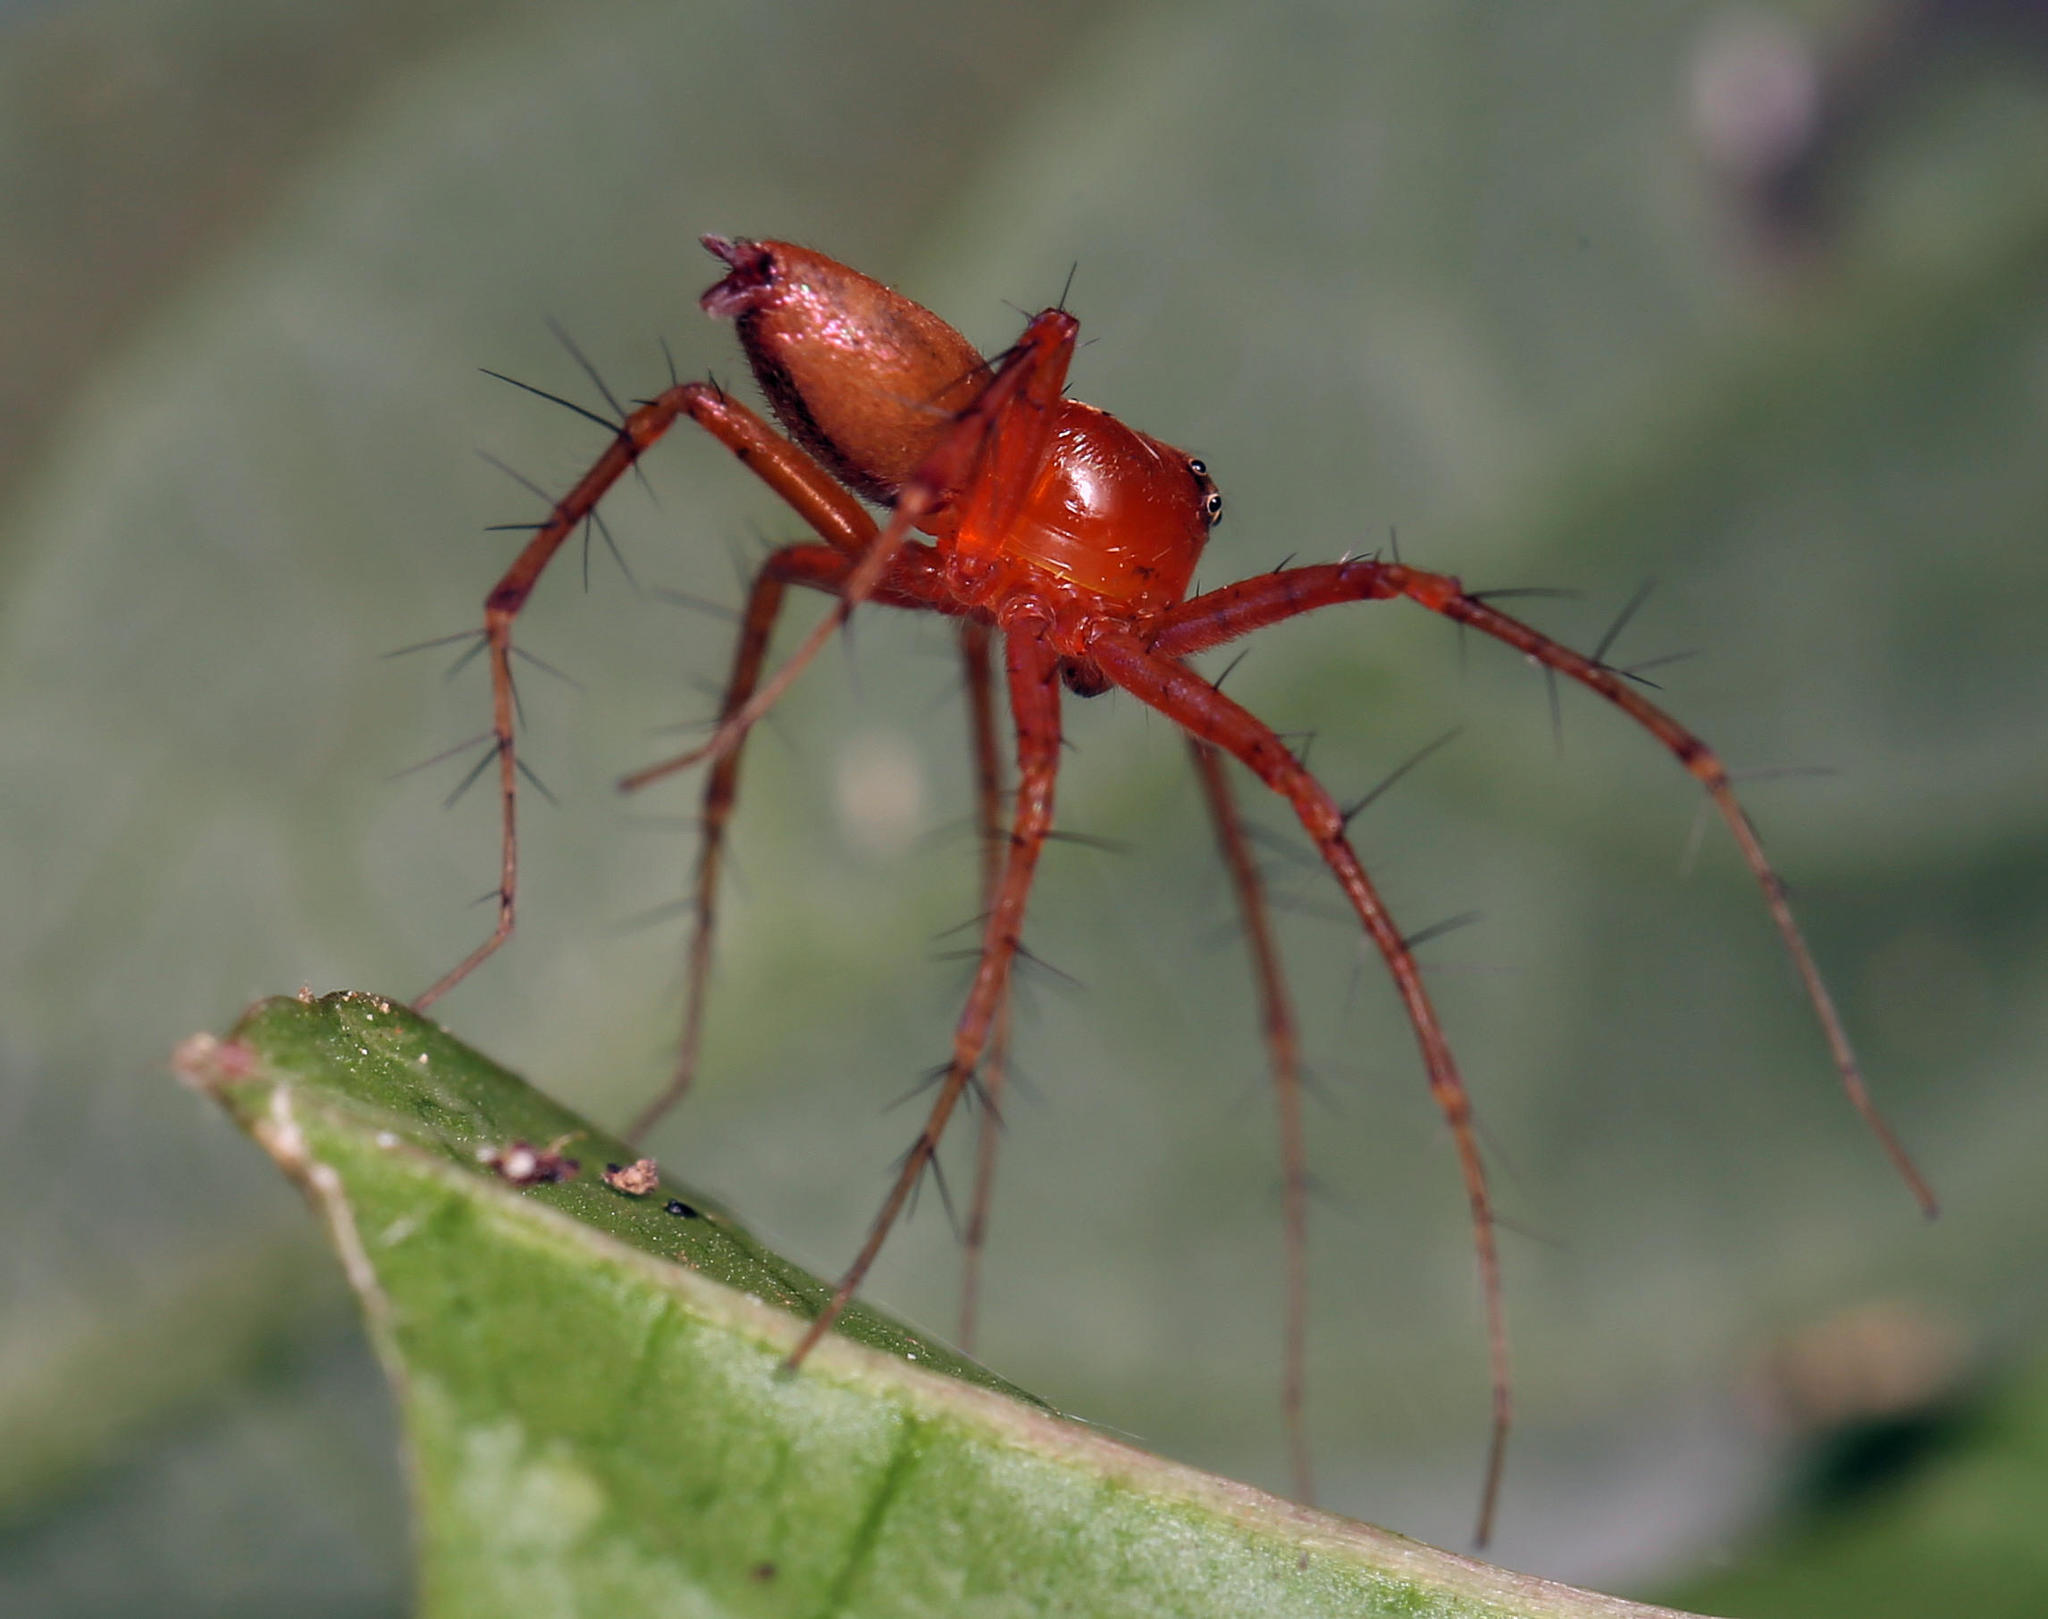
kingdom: Animalia
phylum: Arthropoda
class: Arachnida
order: Araneae
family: Oxyopidae
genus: Oxyopes
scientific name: Oxyopes vogelsangeri
